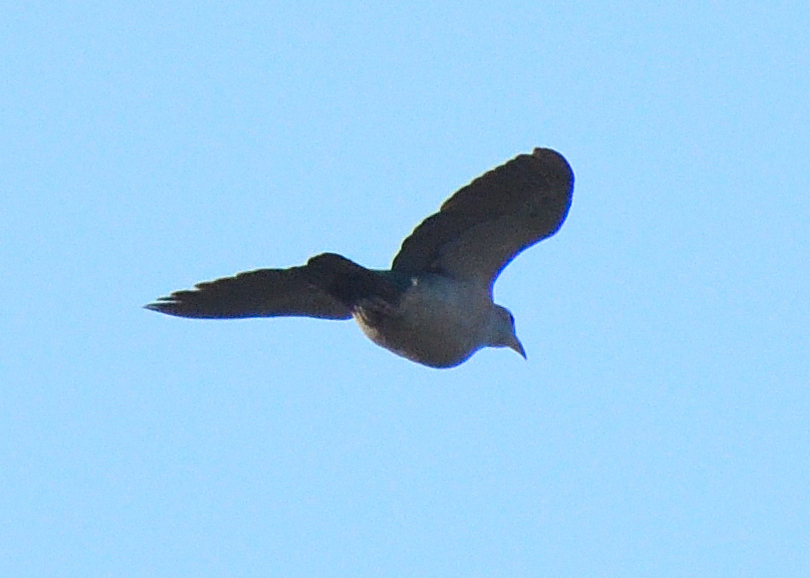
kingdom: Animalia
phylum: Chordata
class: Aves
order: Columbiformes
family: Columbidae
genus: Ducula
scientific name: Ducula aenea
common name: Green imperial pigeon
